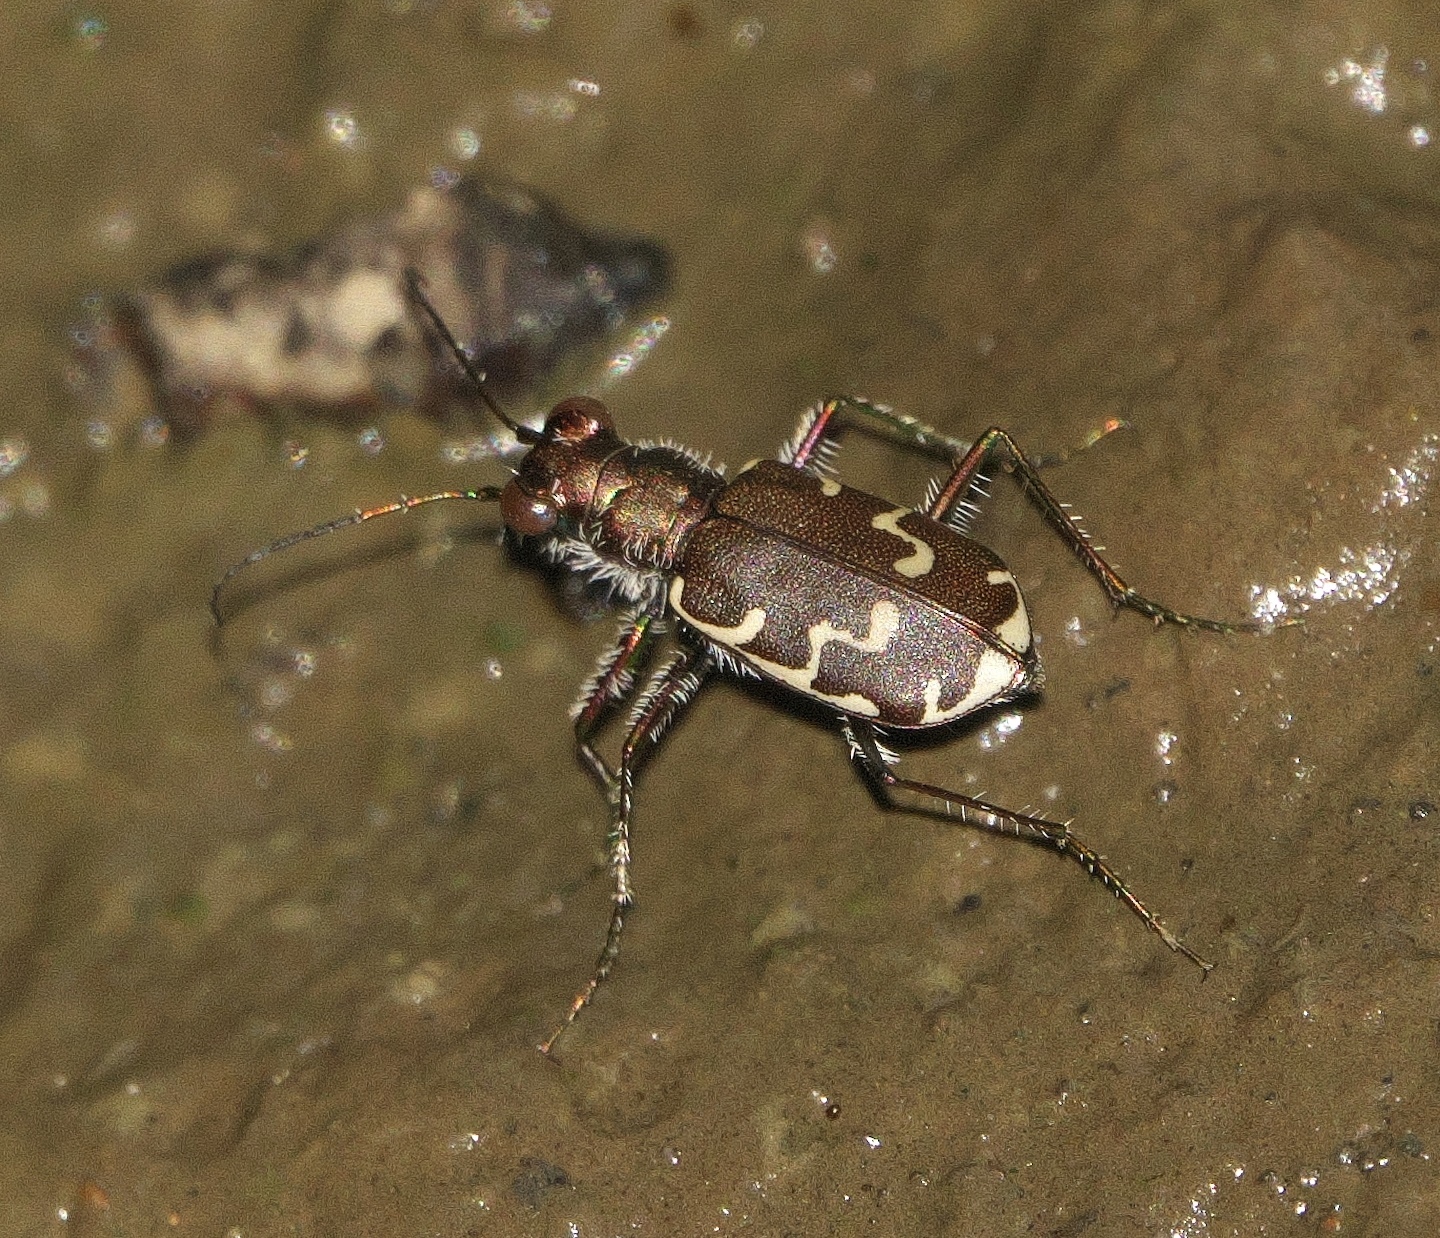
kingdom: Animalia
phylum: Arthropoda
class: Insecta
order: Coleoptera
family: Carabidae
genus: Cicindela
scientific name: Cicindela repanda
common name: Bronzed tiger beetle
